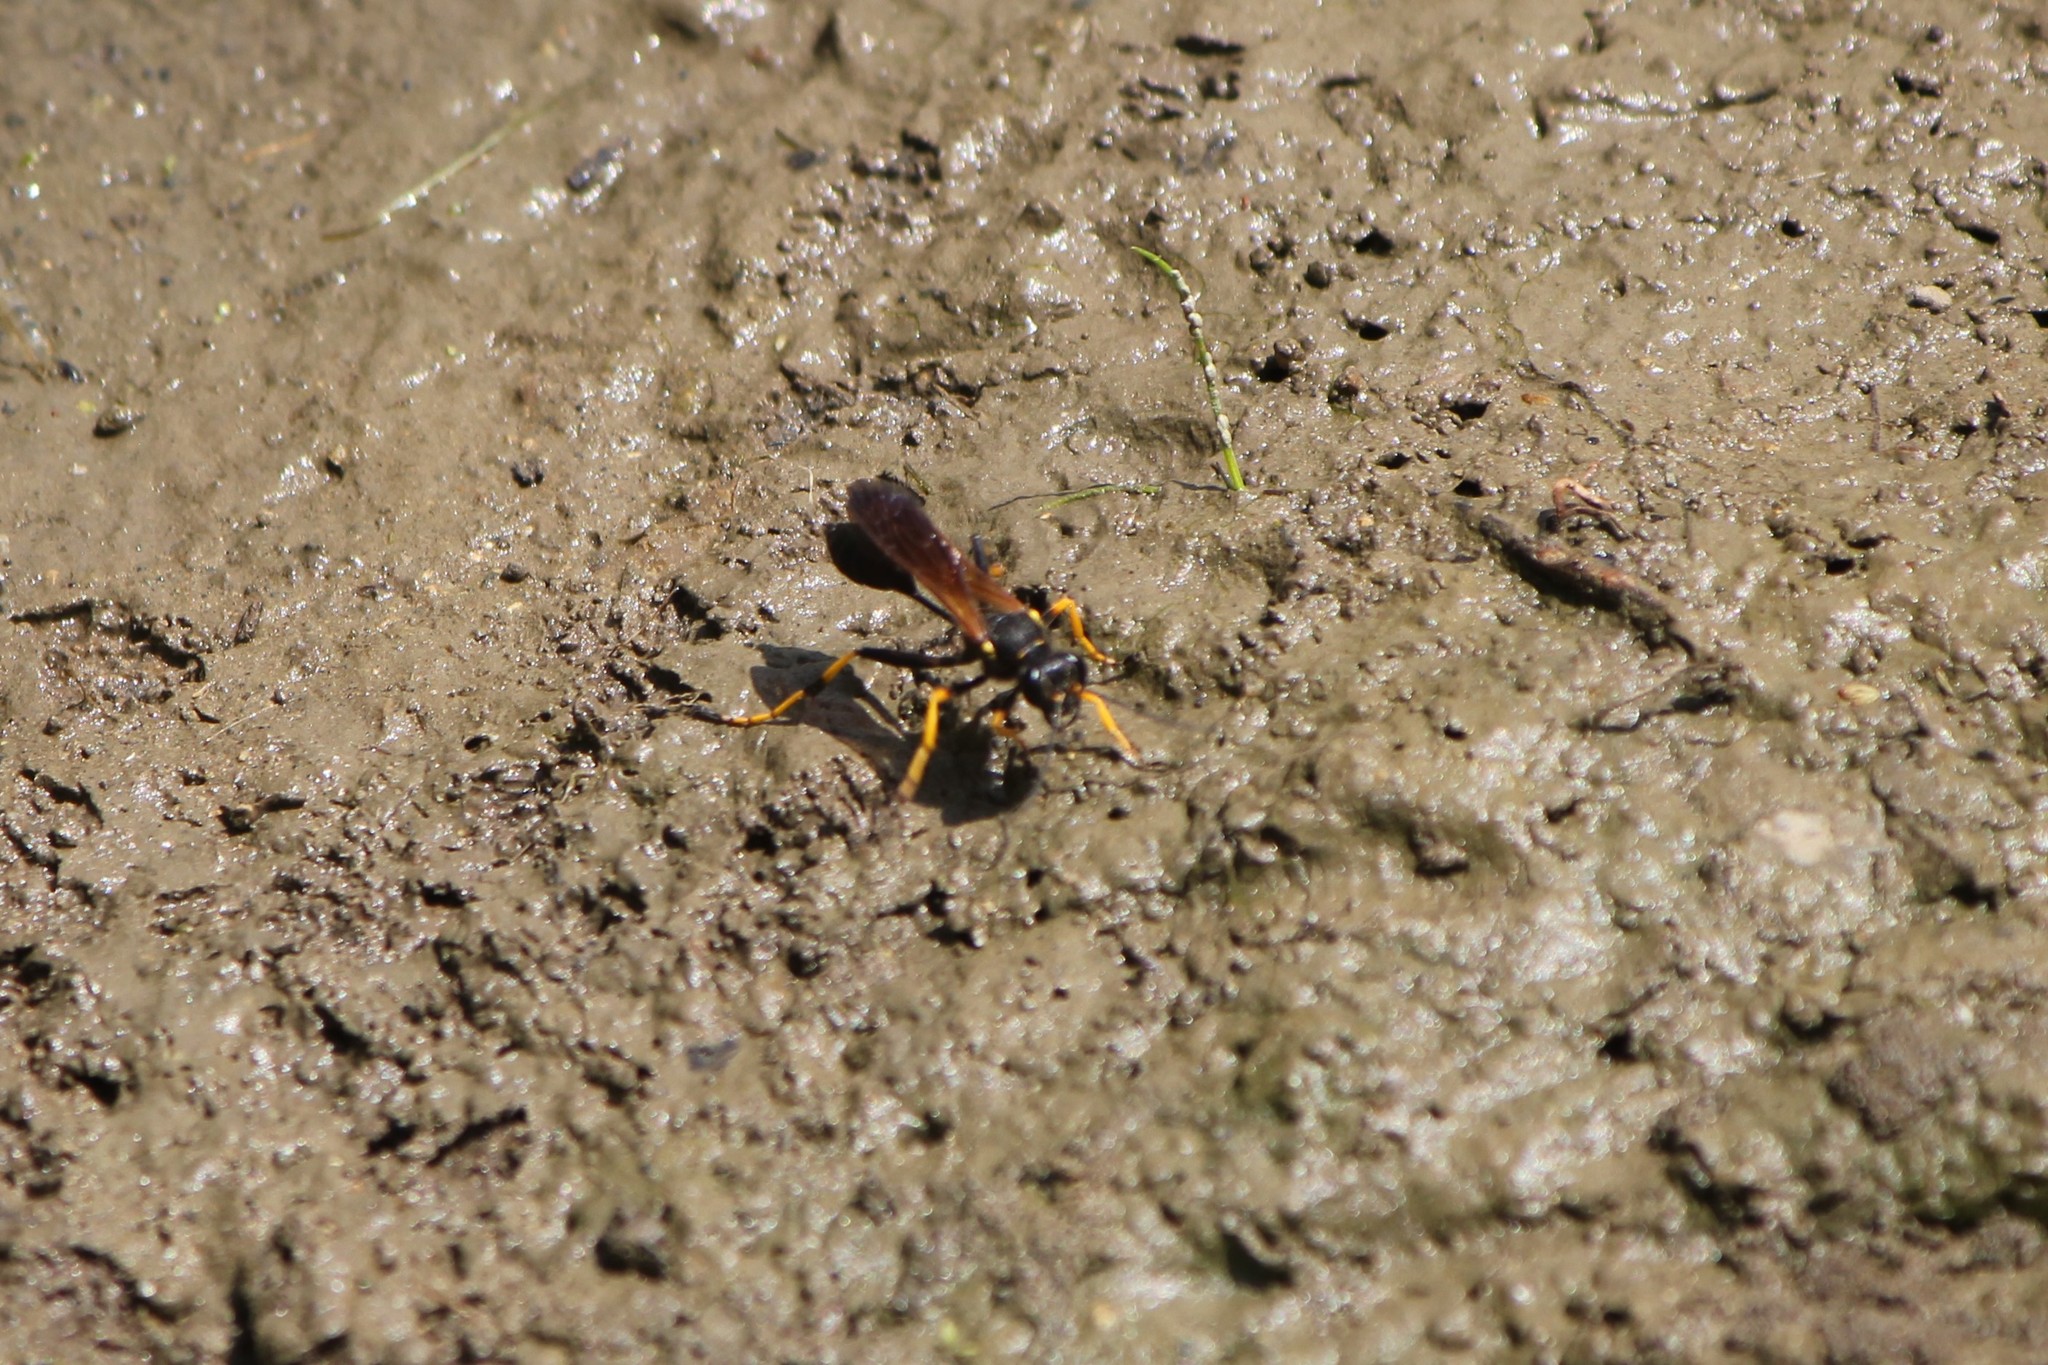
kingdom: Animalia
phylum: Arthropoda
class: Insecta
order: Hymenoptera
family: Sphecidae
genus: Sceliphron
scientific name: Sceliphron caementarium
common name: Mud dauber
